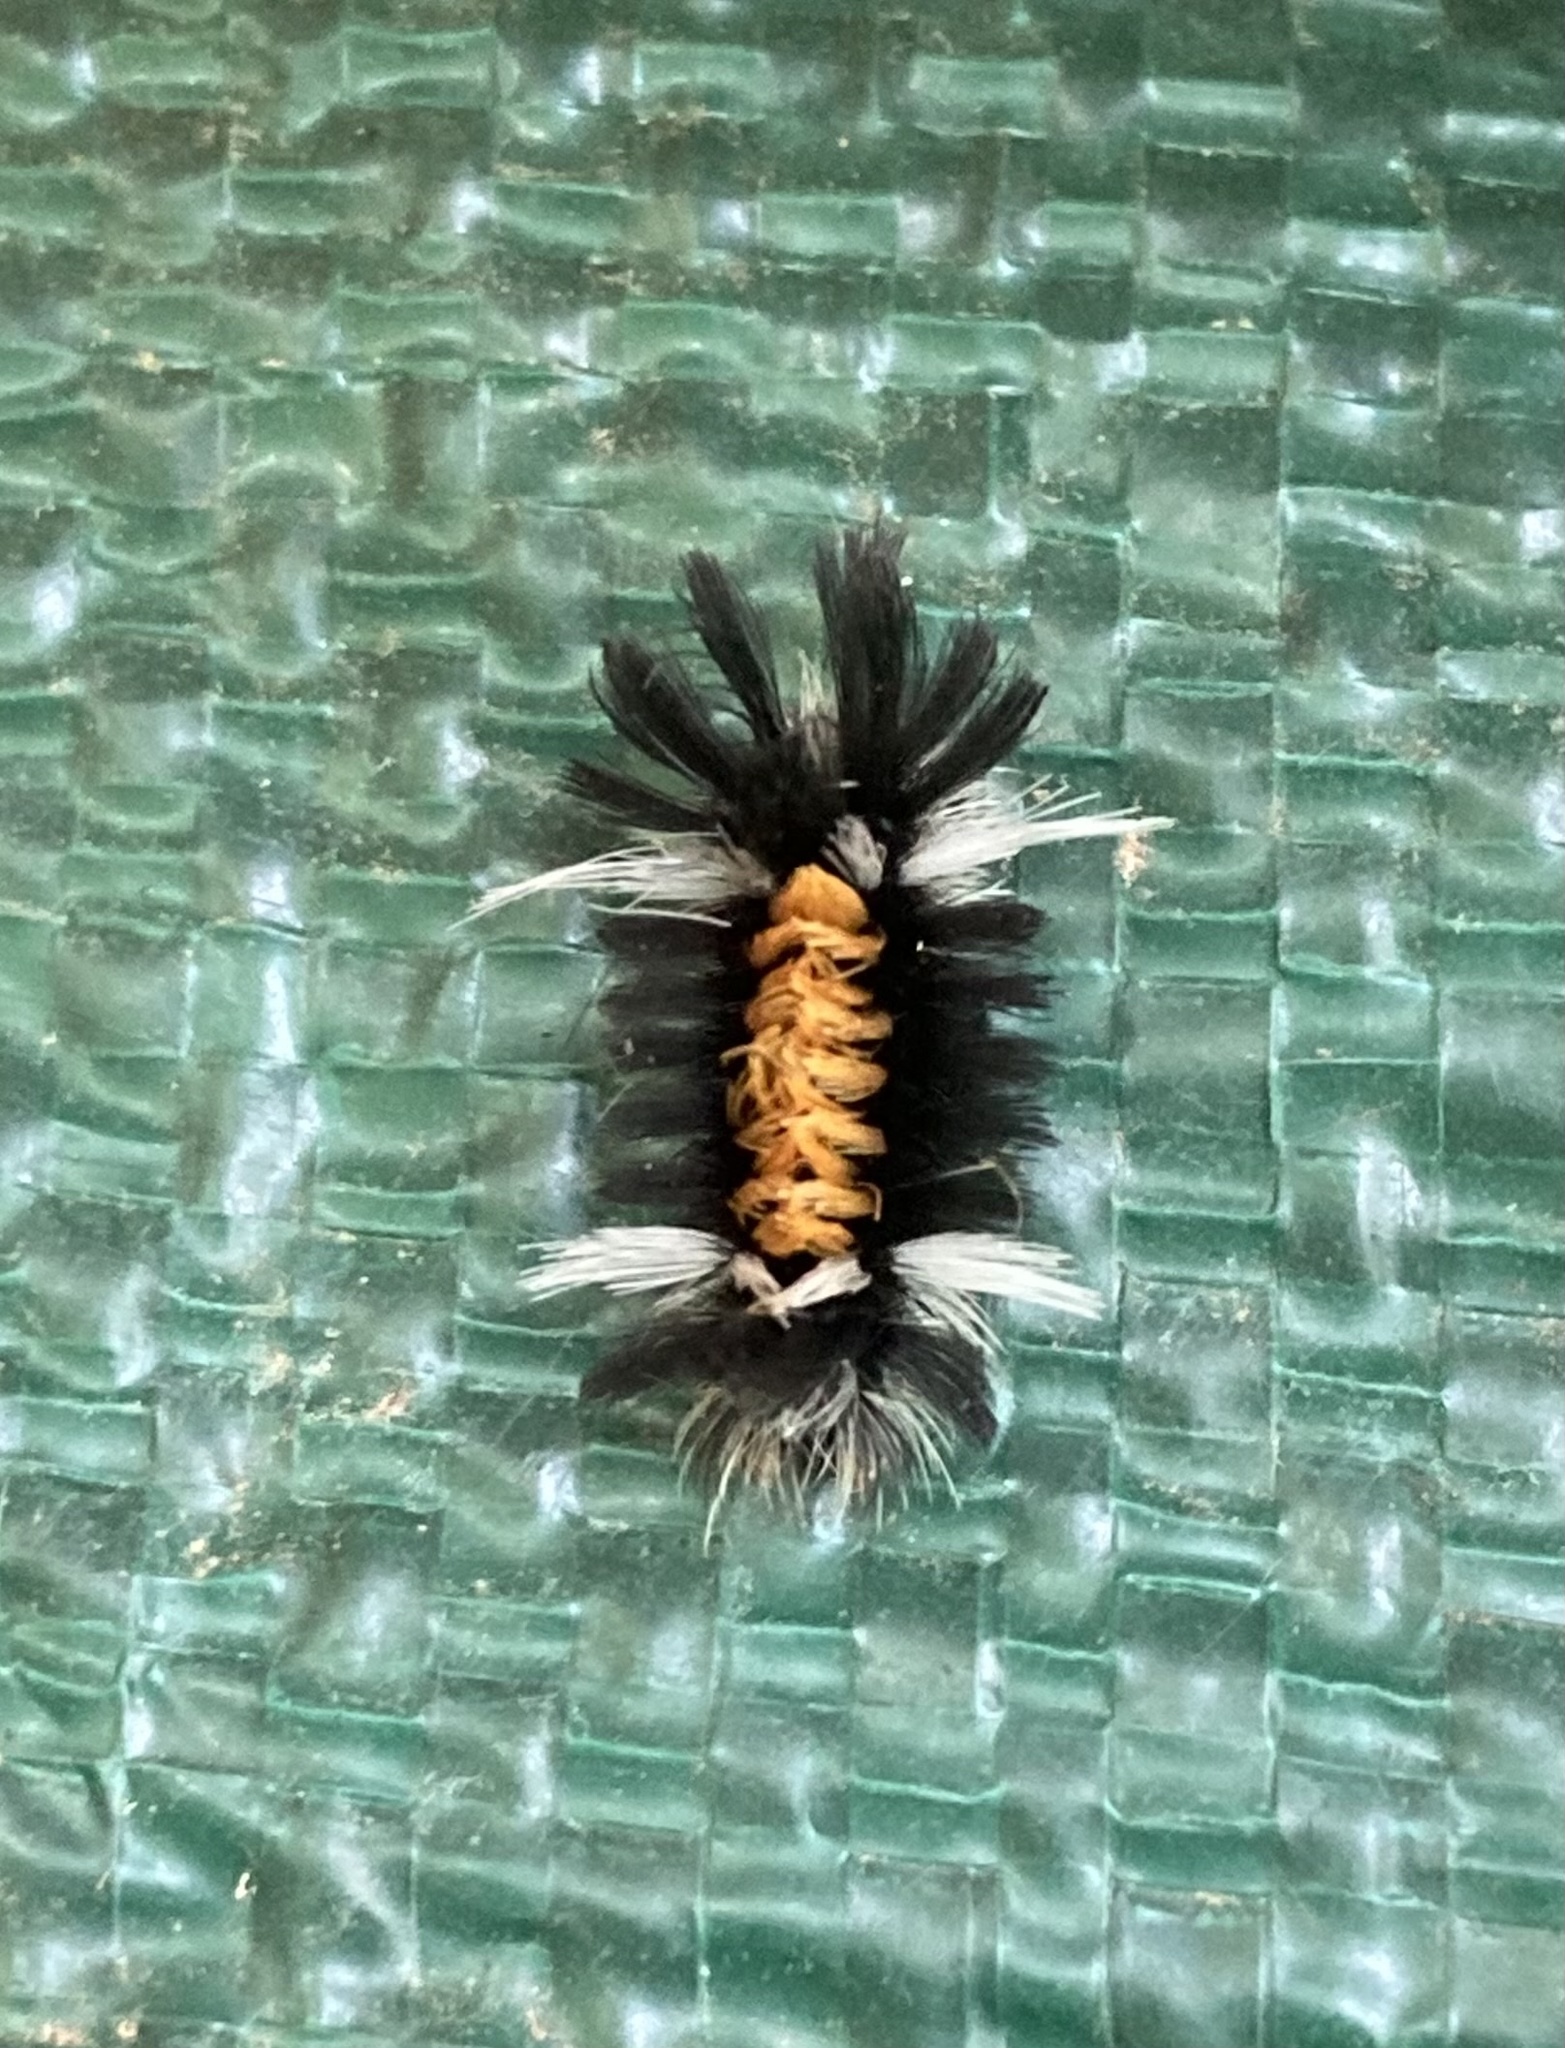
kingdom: Animalia
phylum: Arthropoda
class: Insecta
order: Lepidoptera
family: Erebidae
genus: Euchaetes
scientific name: Euchaetes egle
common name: Milkweed tussock moth
